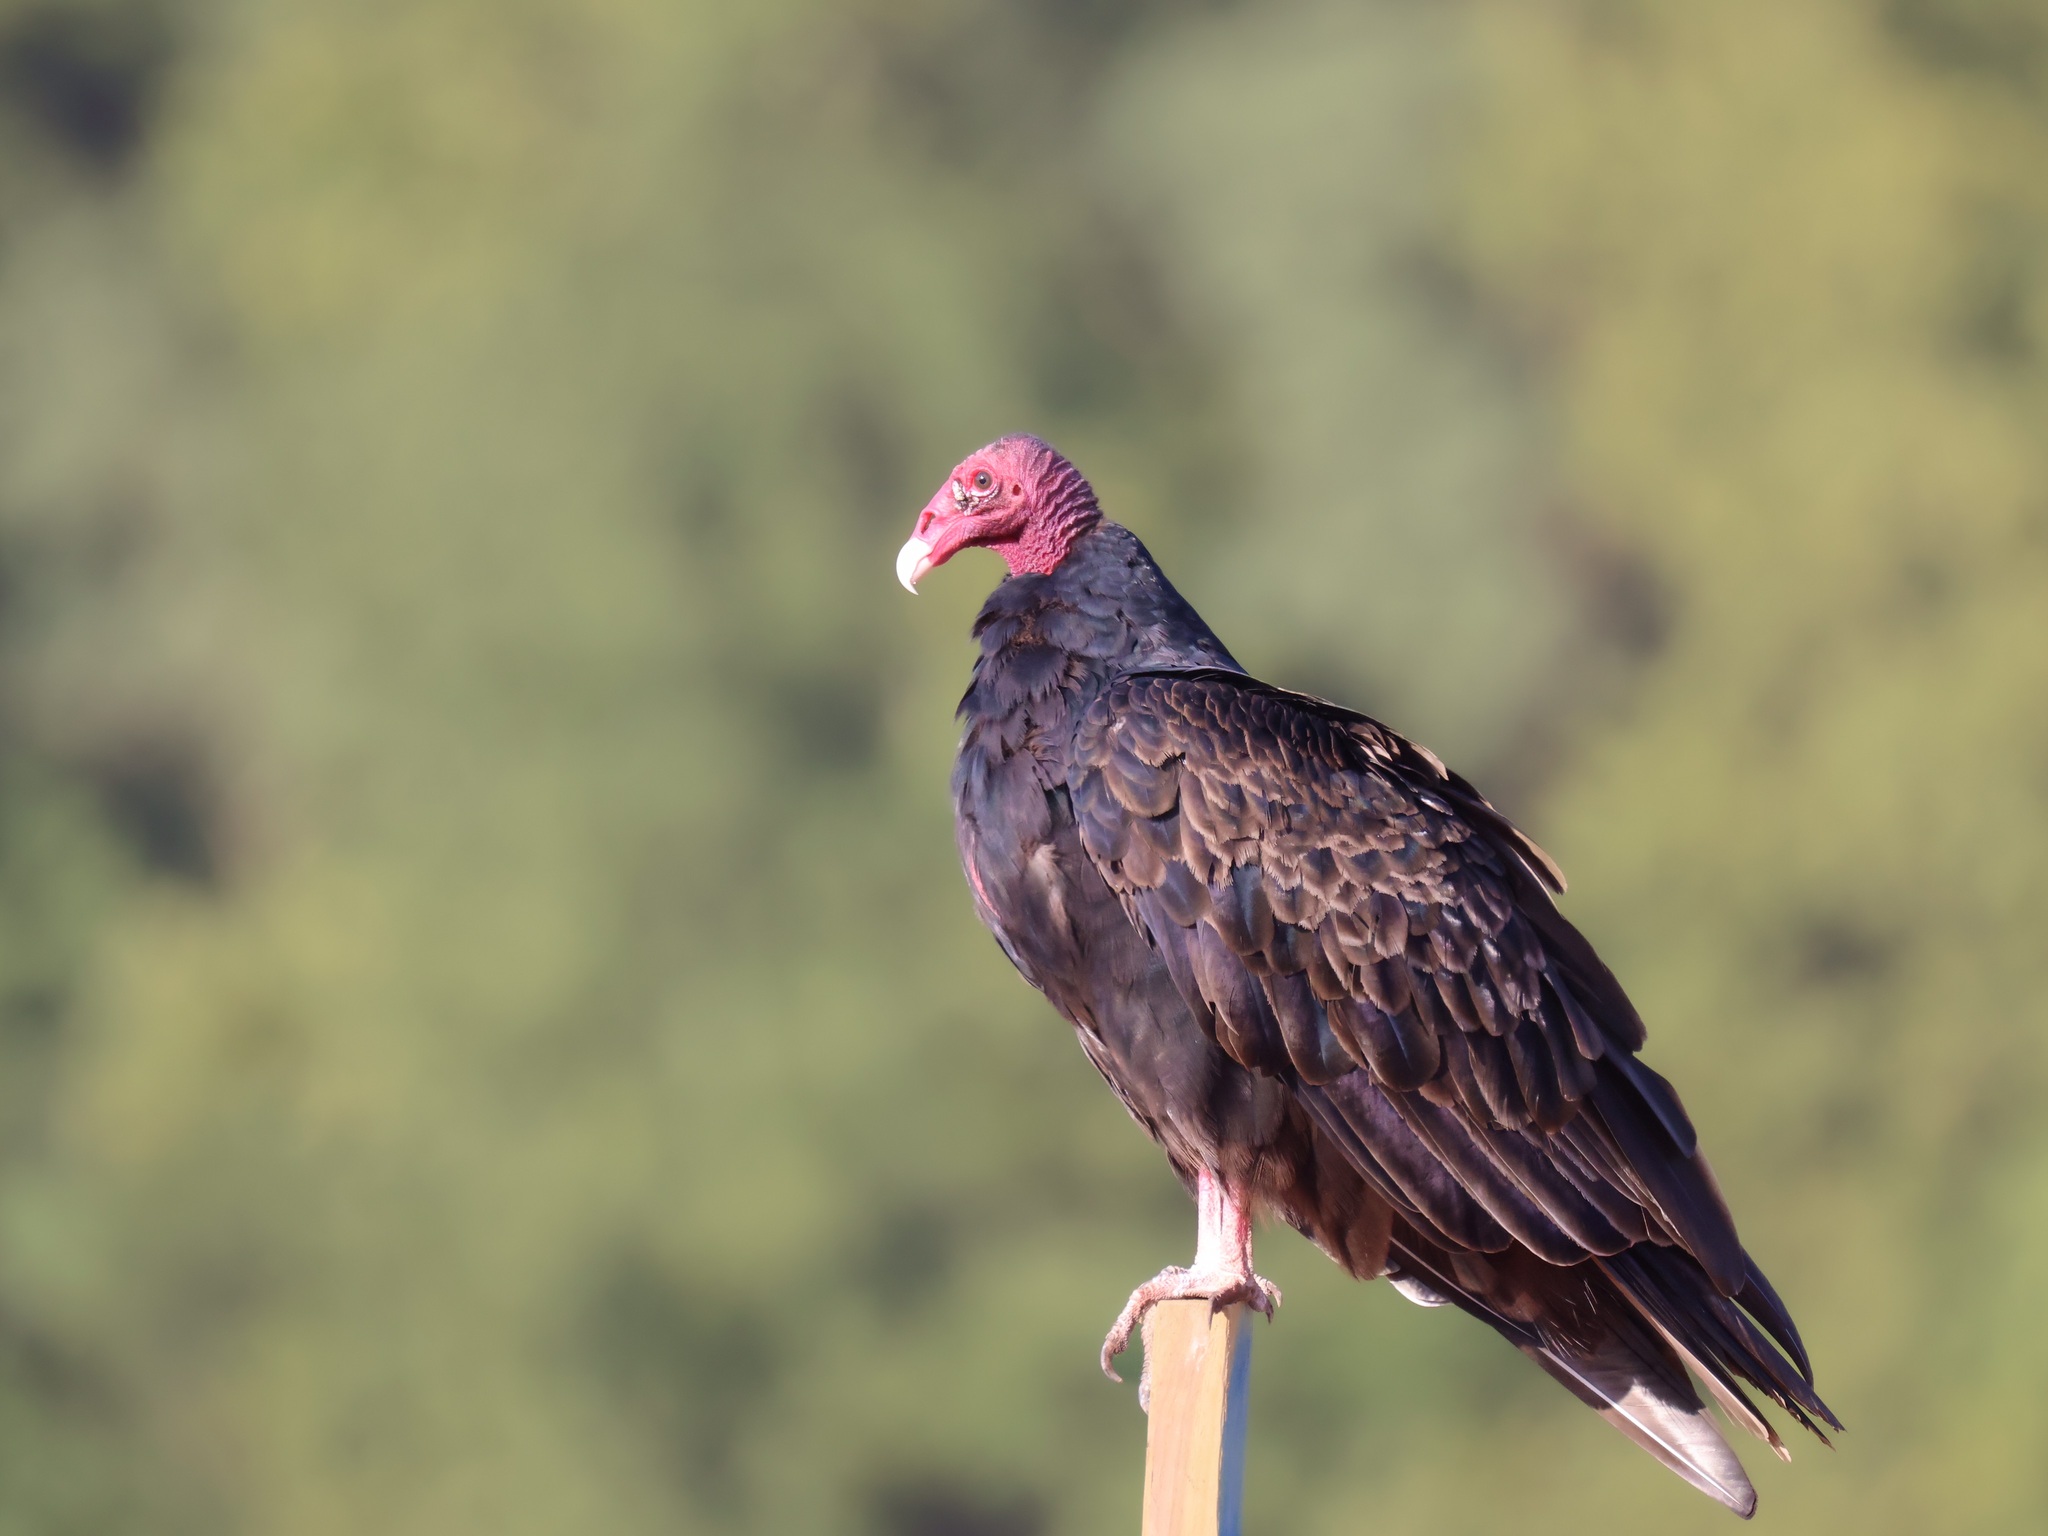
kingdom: Animalia
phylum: Chordata
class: Aves
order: Accipitriformes
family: Cathartidae
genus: Cathartes
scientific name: Cathartes aura
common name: Turkey vulture
